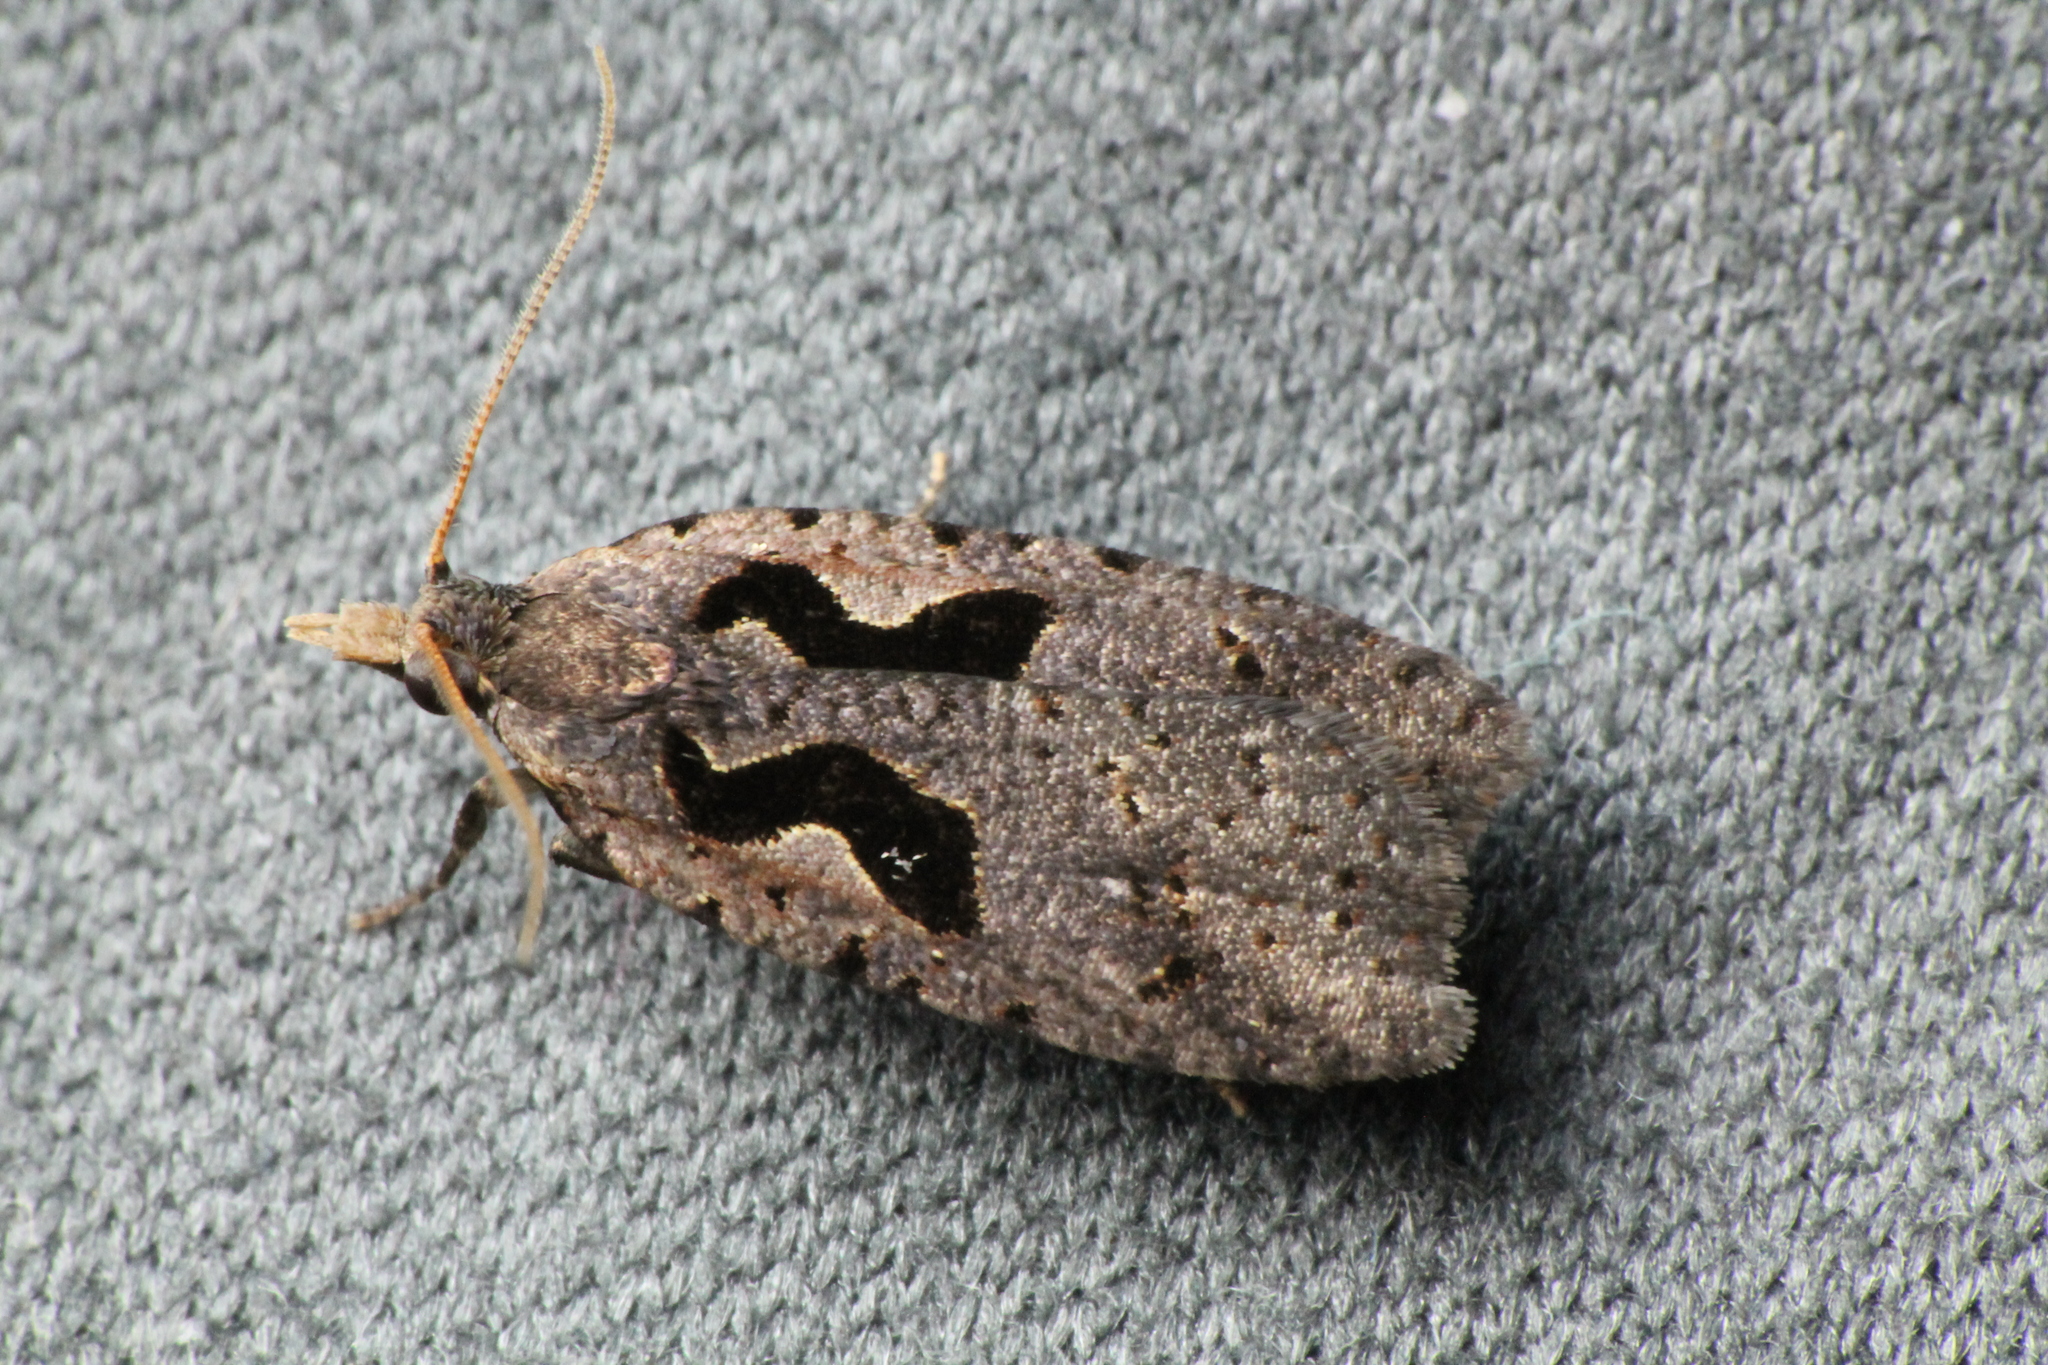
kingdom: Animalia
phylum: Arthropoda
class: Insecta
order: Lepidoptera
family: Tortricidae
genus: Cnephasia
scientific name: Cnephasia jactatana
